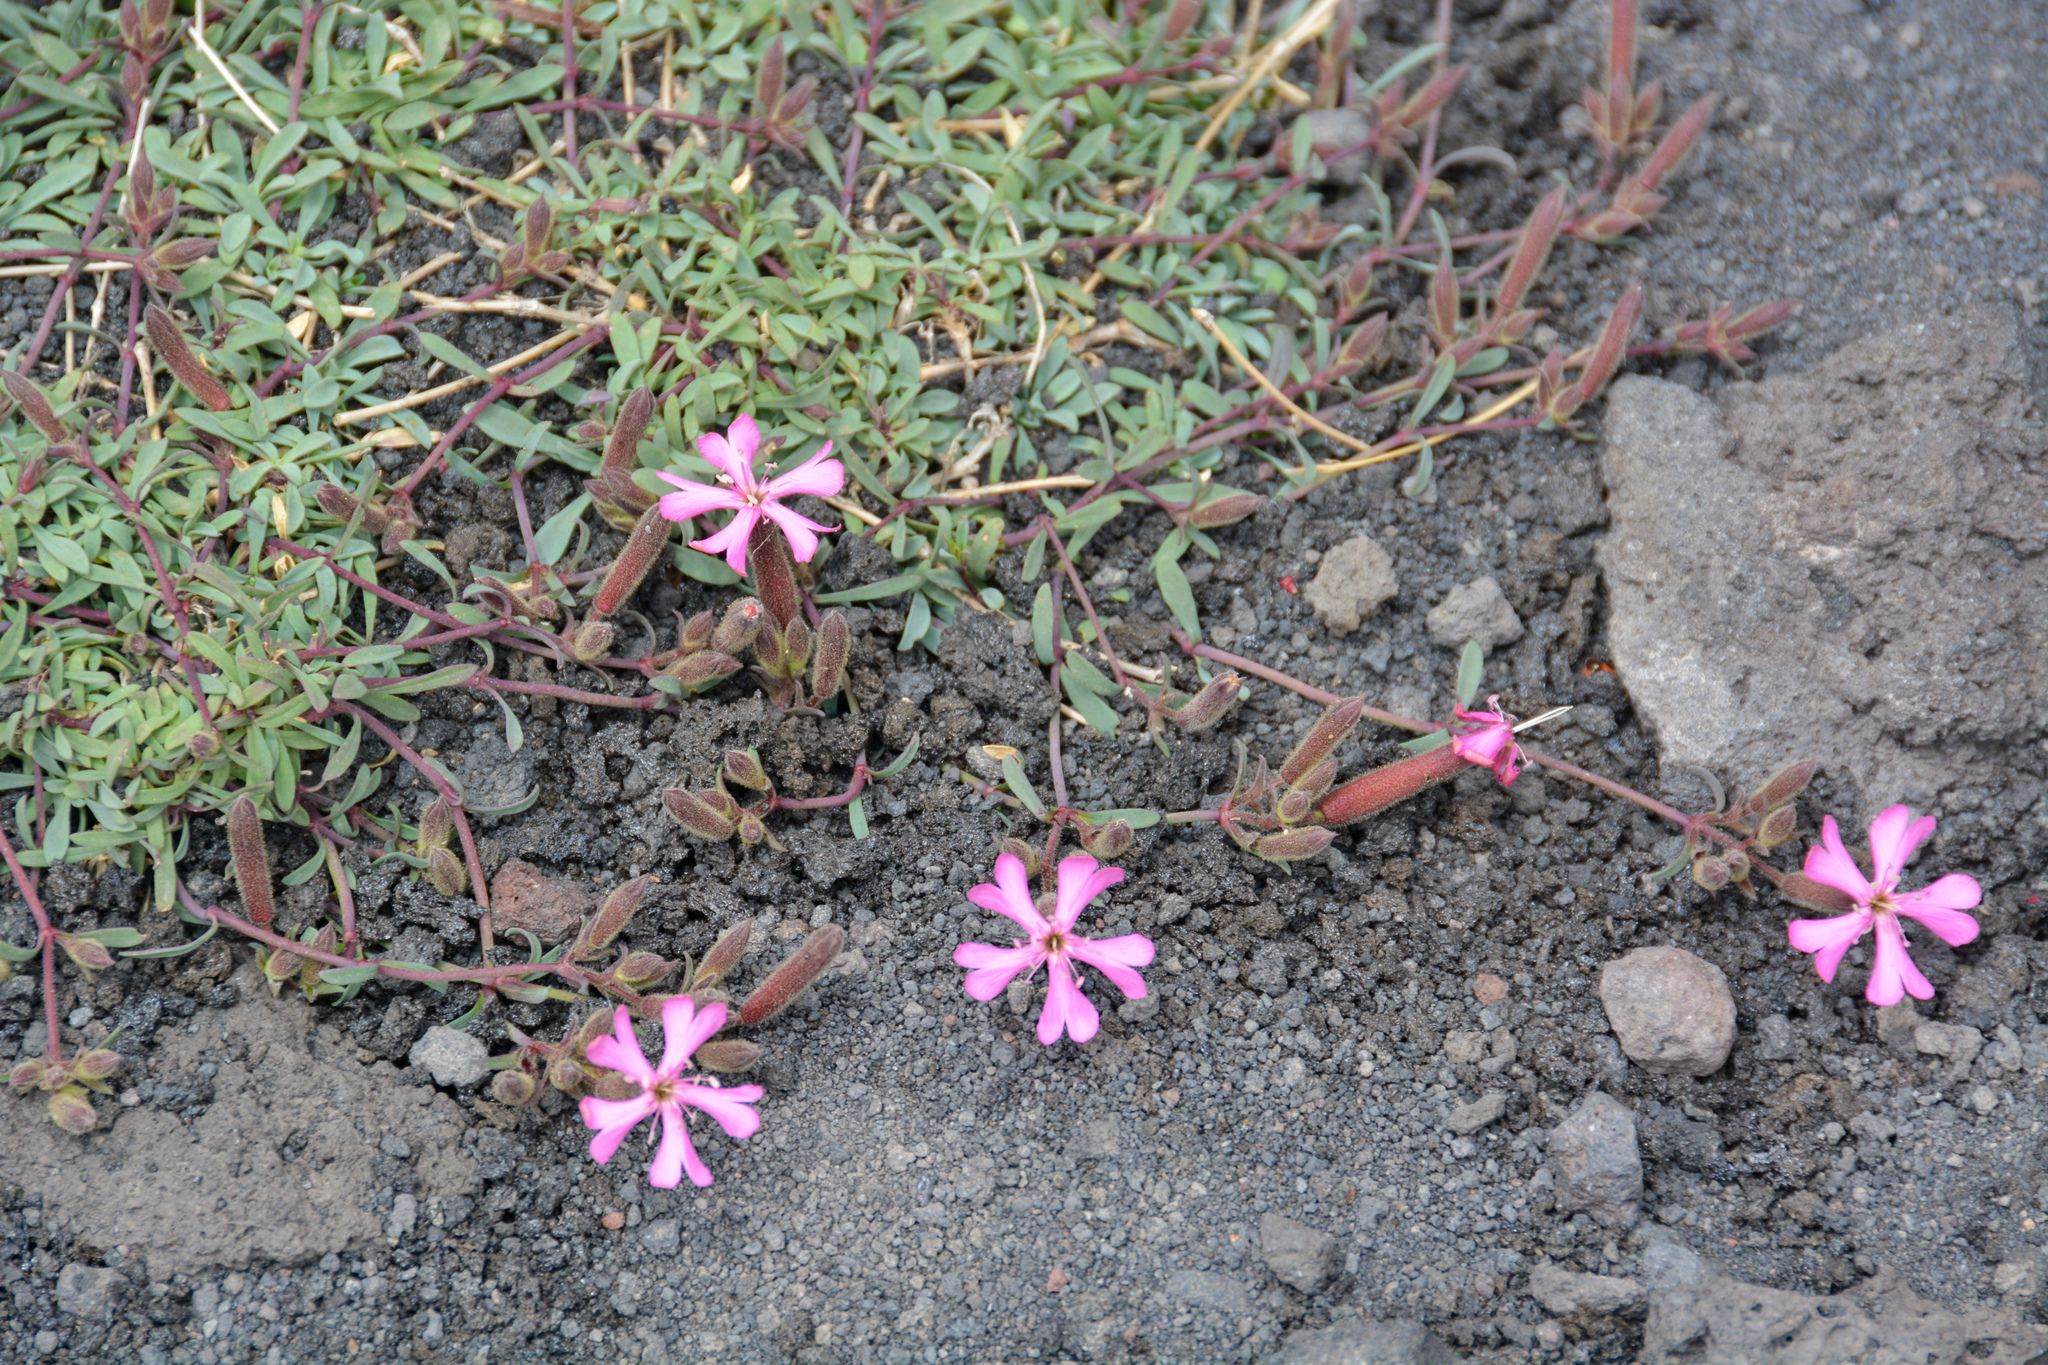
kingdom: Plantae
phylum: Tracheophyta
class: Magnoliopsida
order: Caryophyllales
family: Caryophyllaceae
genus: Saponaria
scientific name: Saponaria sicula
